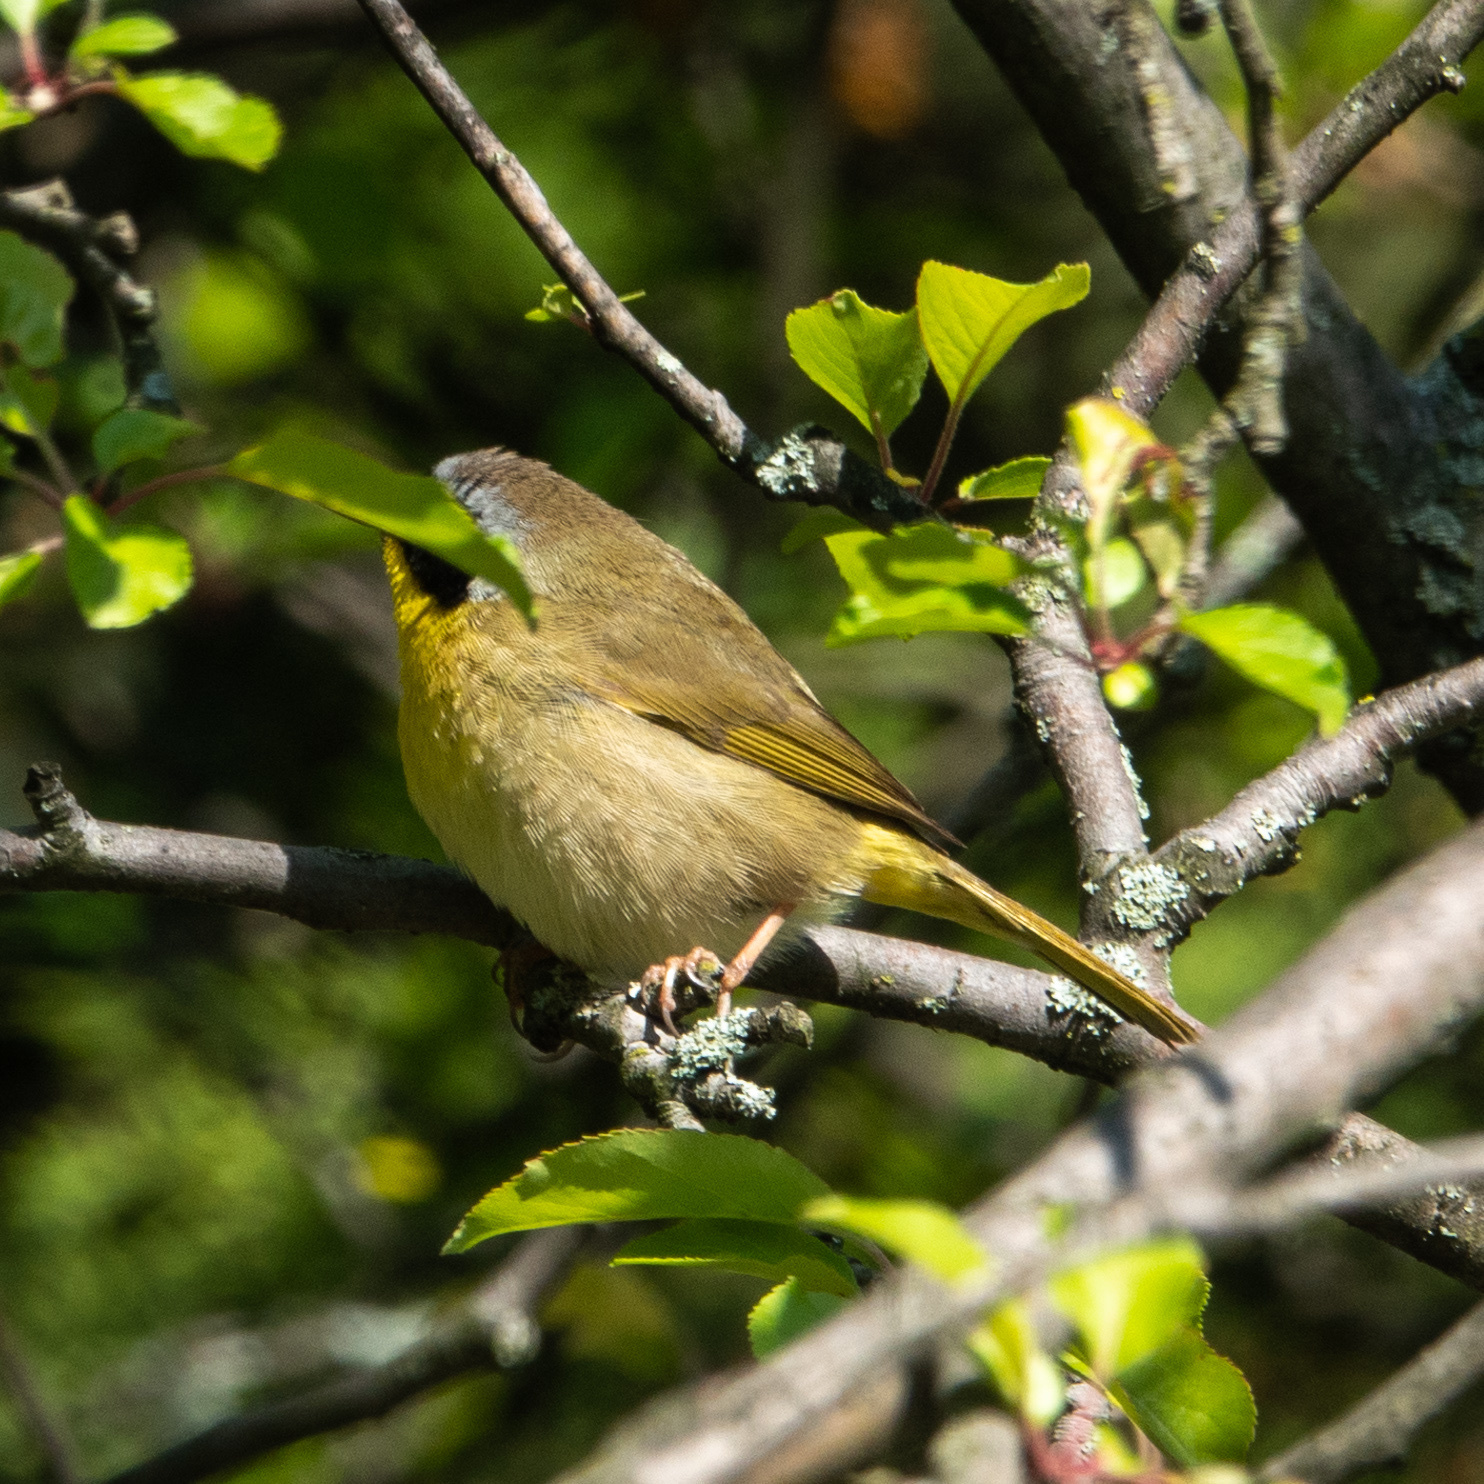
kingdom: Animalia
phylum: Chordata
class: Aves
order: Passeriformes
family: Parulidae
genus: Geothlypis
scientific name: Geothlypis trichas
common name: Common yellowthroat
